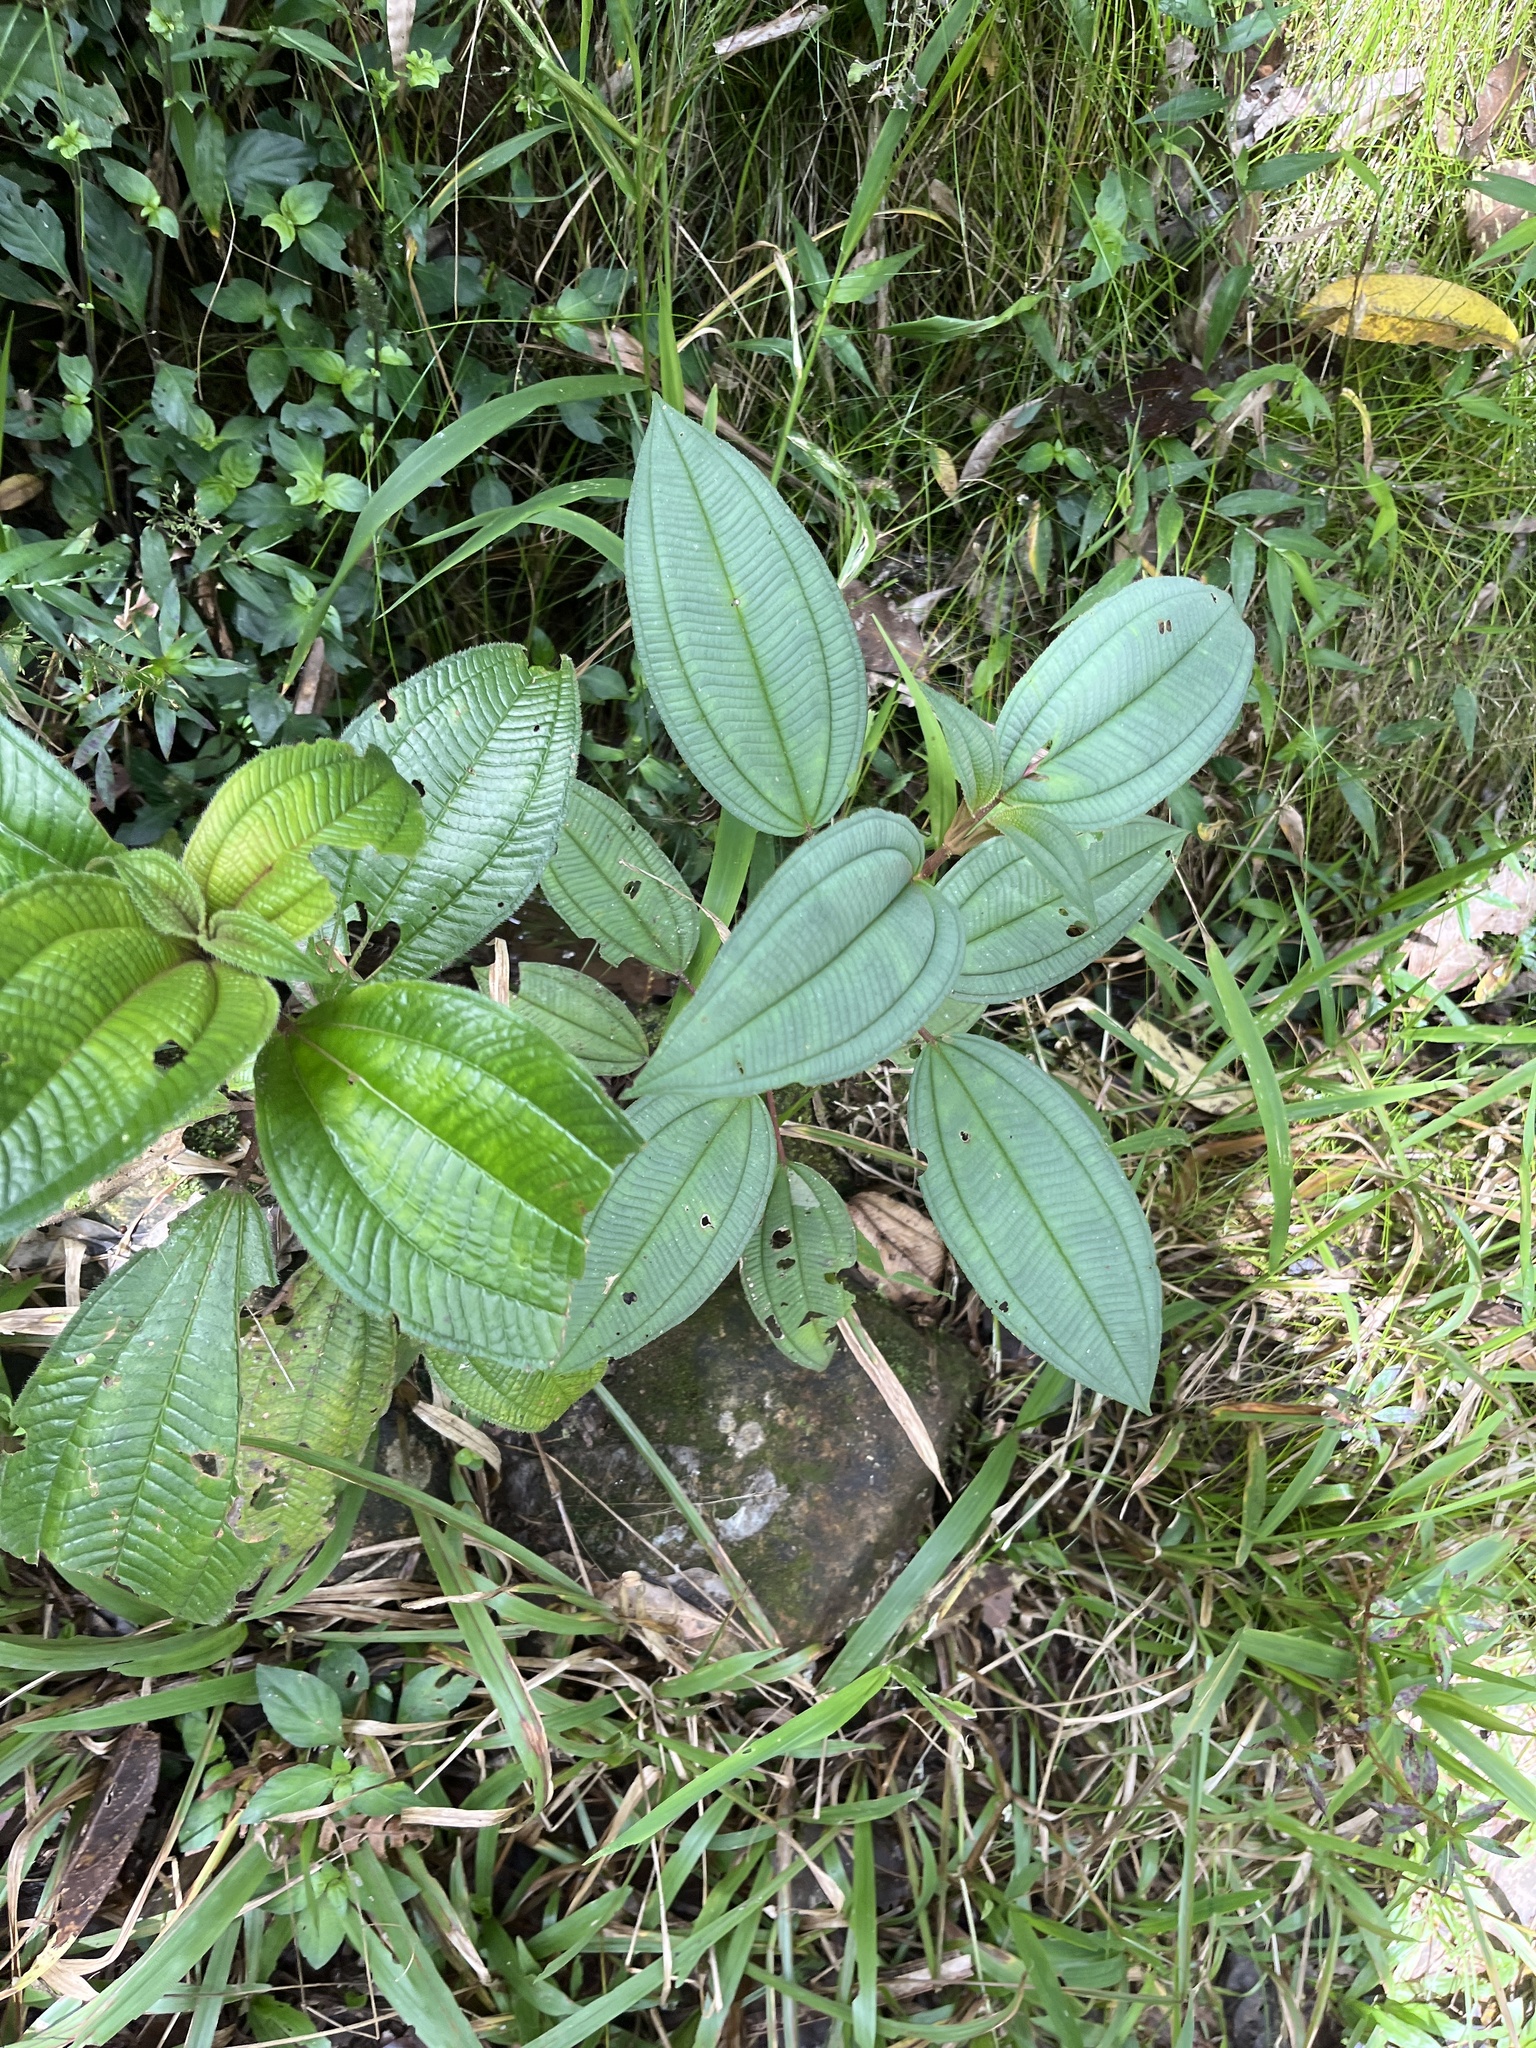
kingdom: Plantae
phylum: Tracheophyta
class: Magnoliopsida
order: Myrtales
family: Melastomataceae
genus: Miconia
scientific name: Miconia sintenisii
